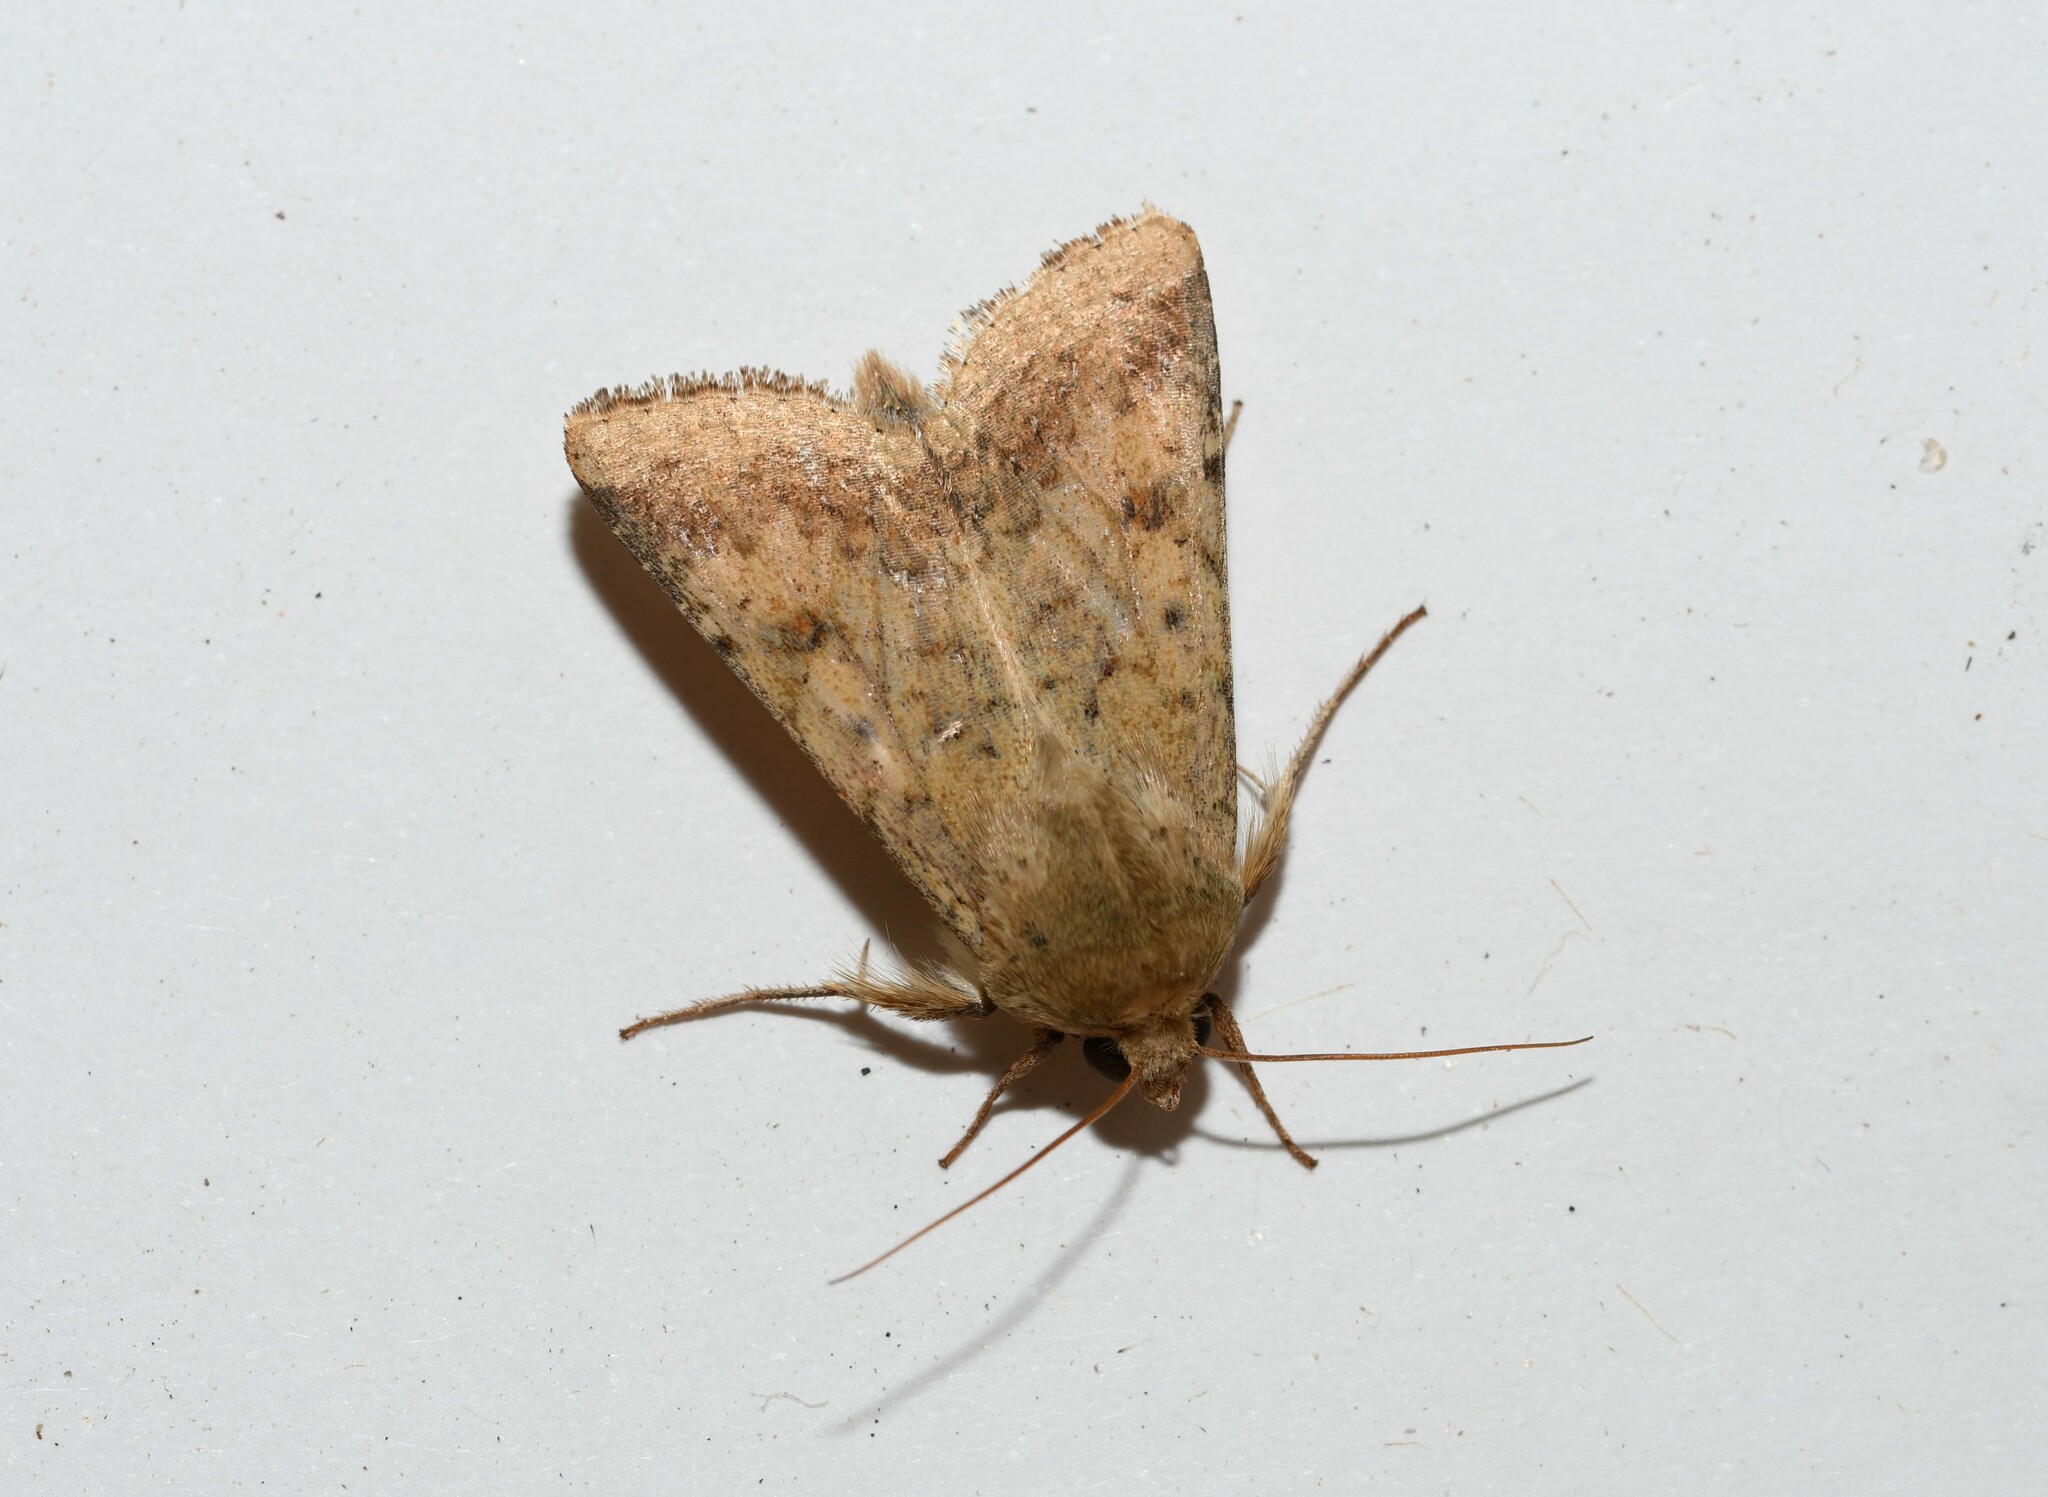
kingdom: Animalia
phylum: Arthropoda
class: Insecta
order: Lepidoptera
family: Noctuidae
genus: Helicoverpa
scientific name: Helicoverpa armigera
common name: Cotton bollworm
